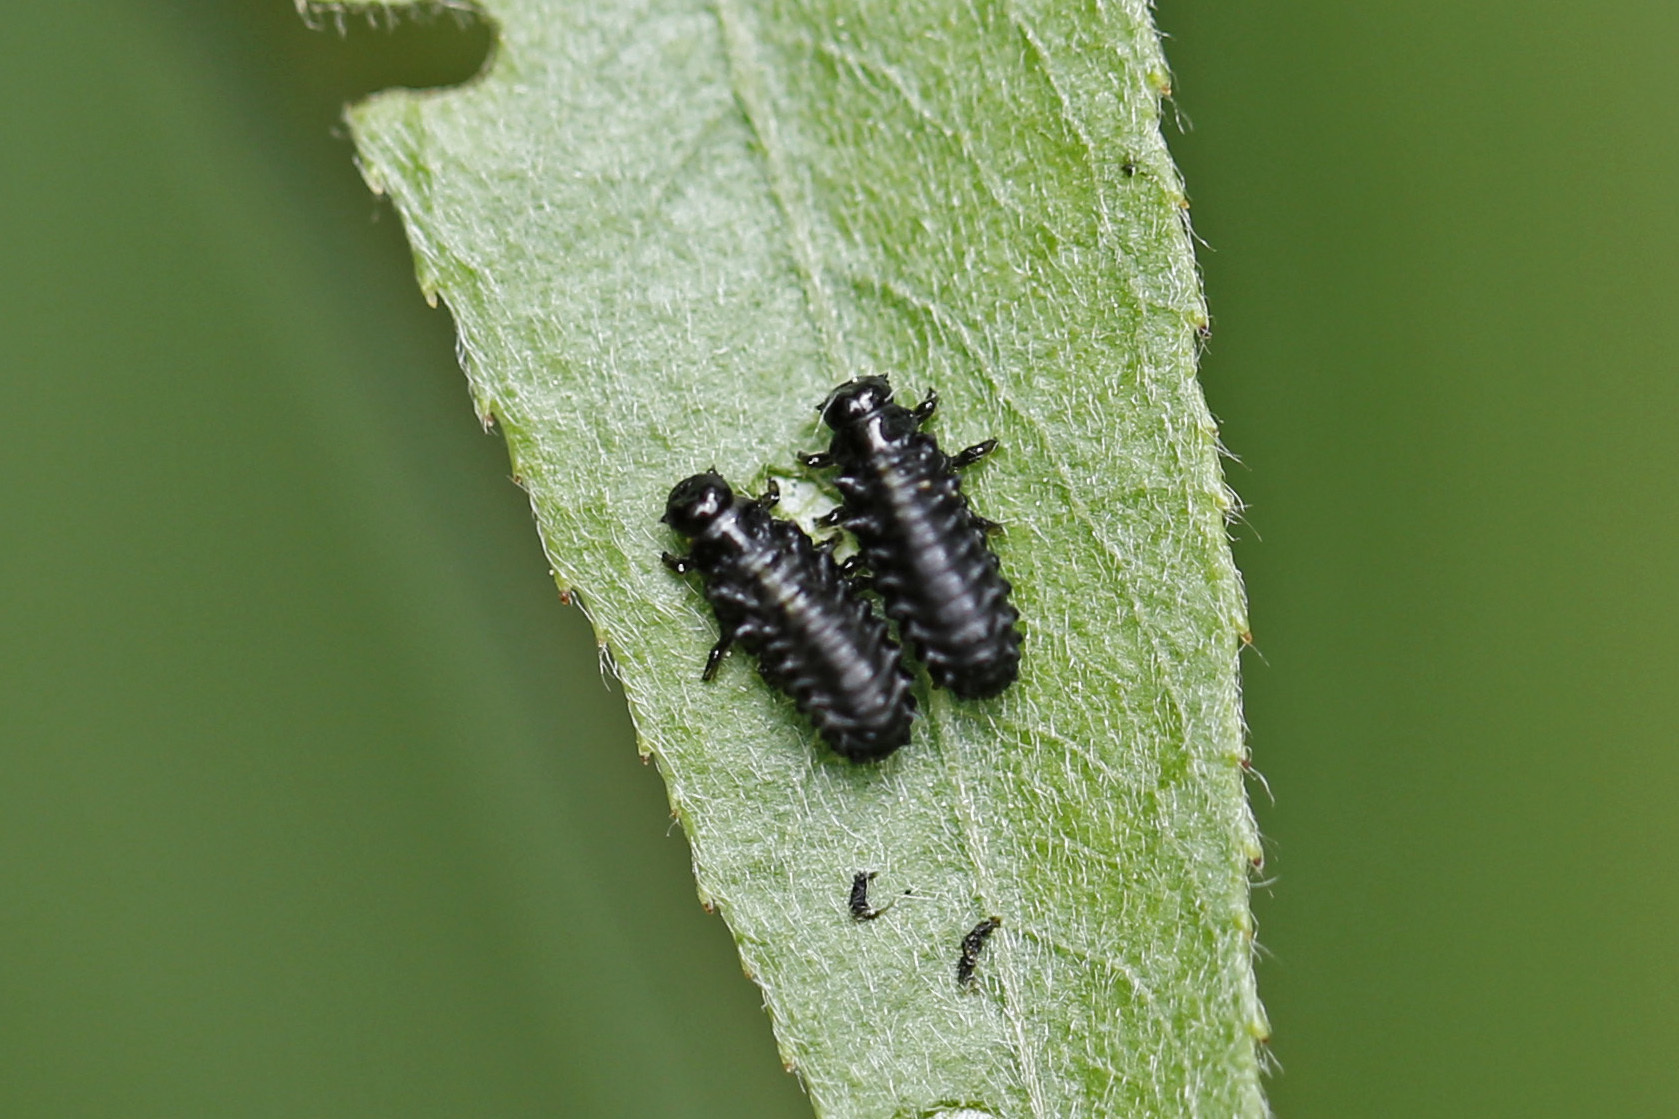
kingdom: Animalia
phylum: Arthropoda
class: Insecta
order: Coleoptera
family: Chrysomelidae
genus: Plagiodera
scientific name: Plagiodera versicolora
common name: Imported willow leaf beetle
